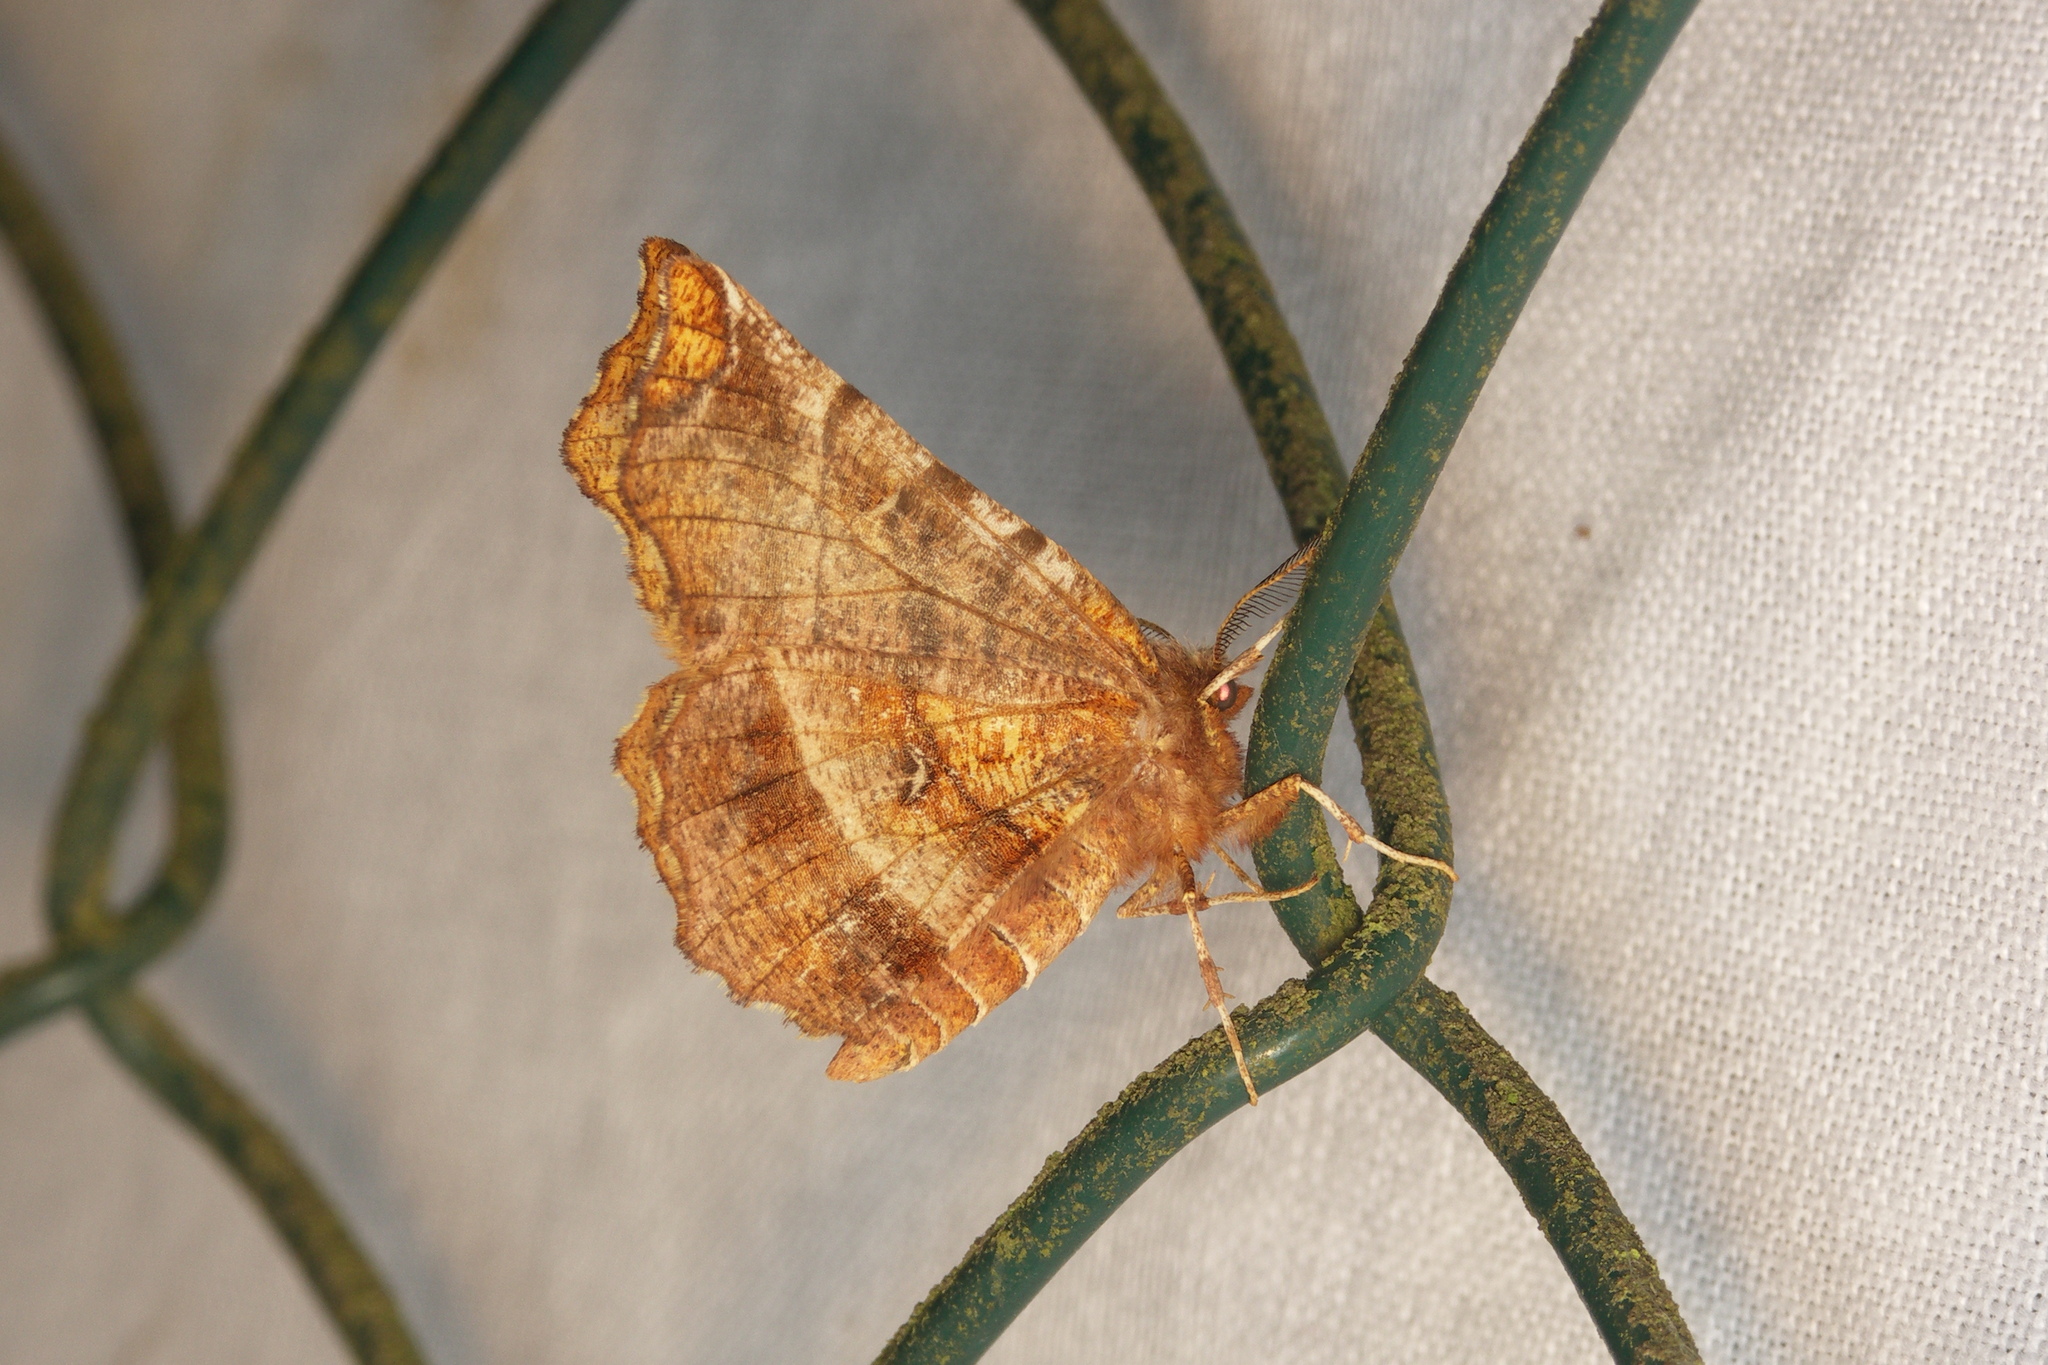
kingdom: Animalia
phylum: Arthropoda
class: Insecta
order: Lepidoptera
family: Geometridae
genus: Selenia
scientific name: Selenia dentaria
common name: Early thorn
